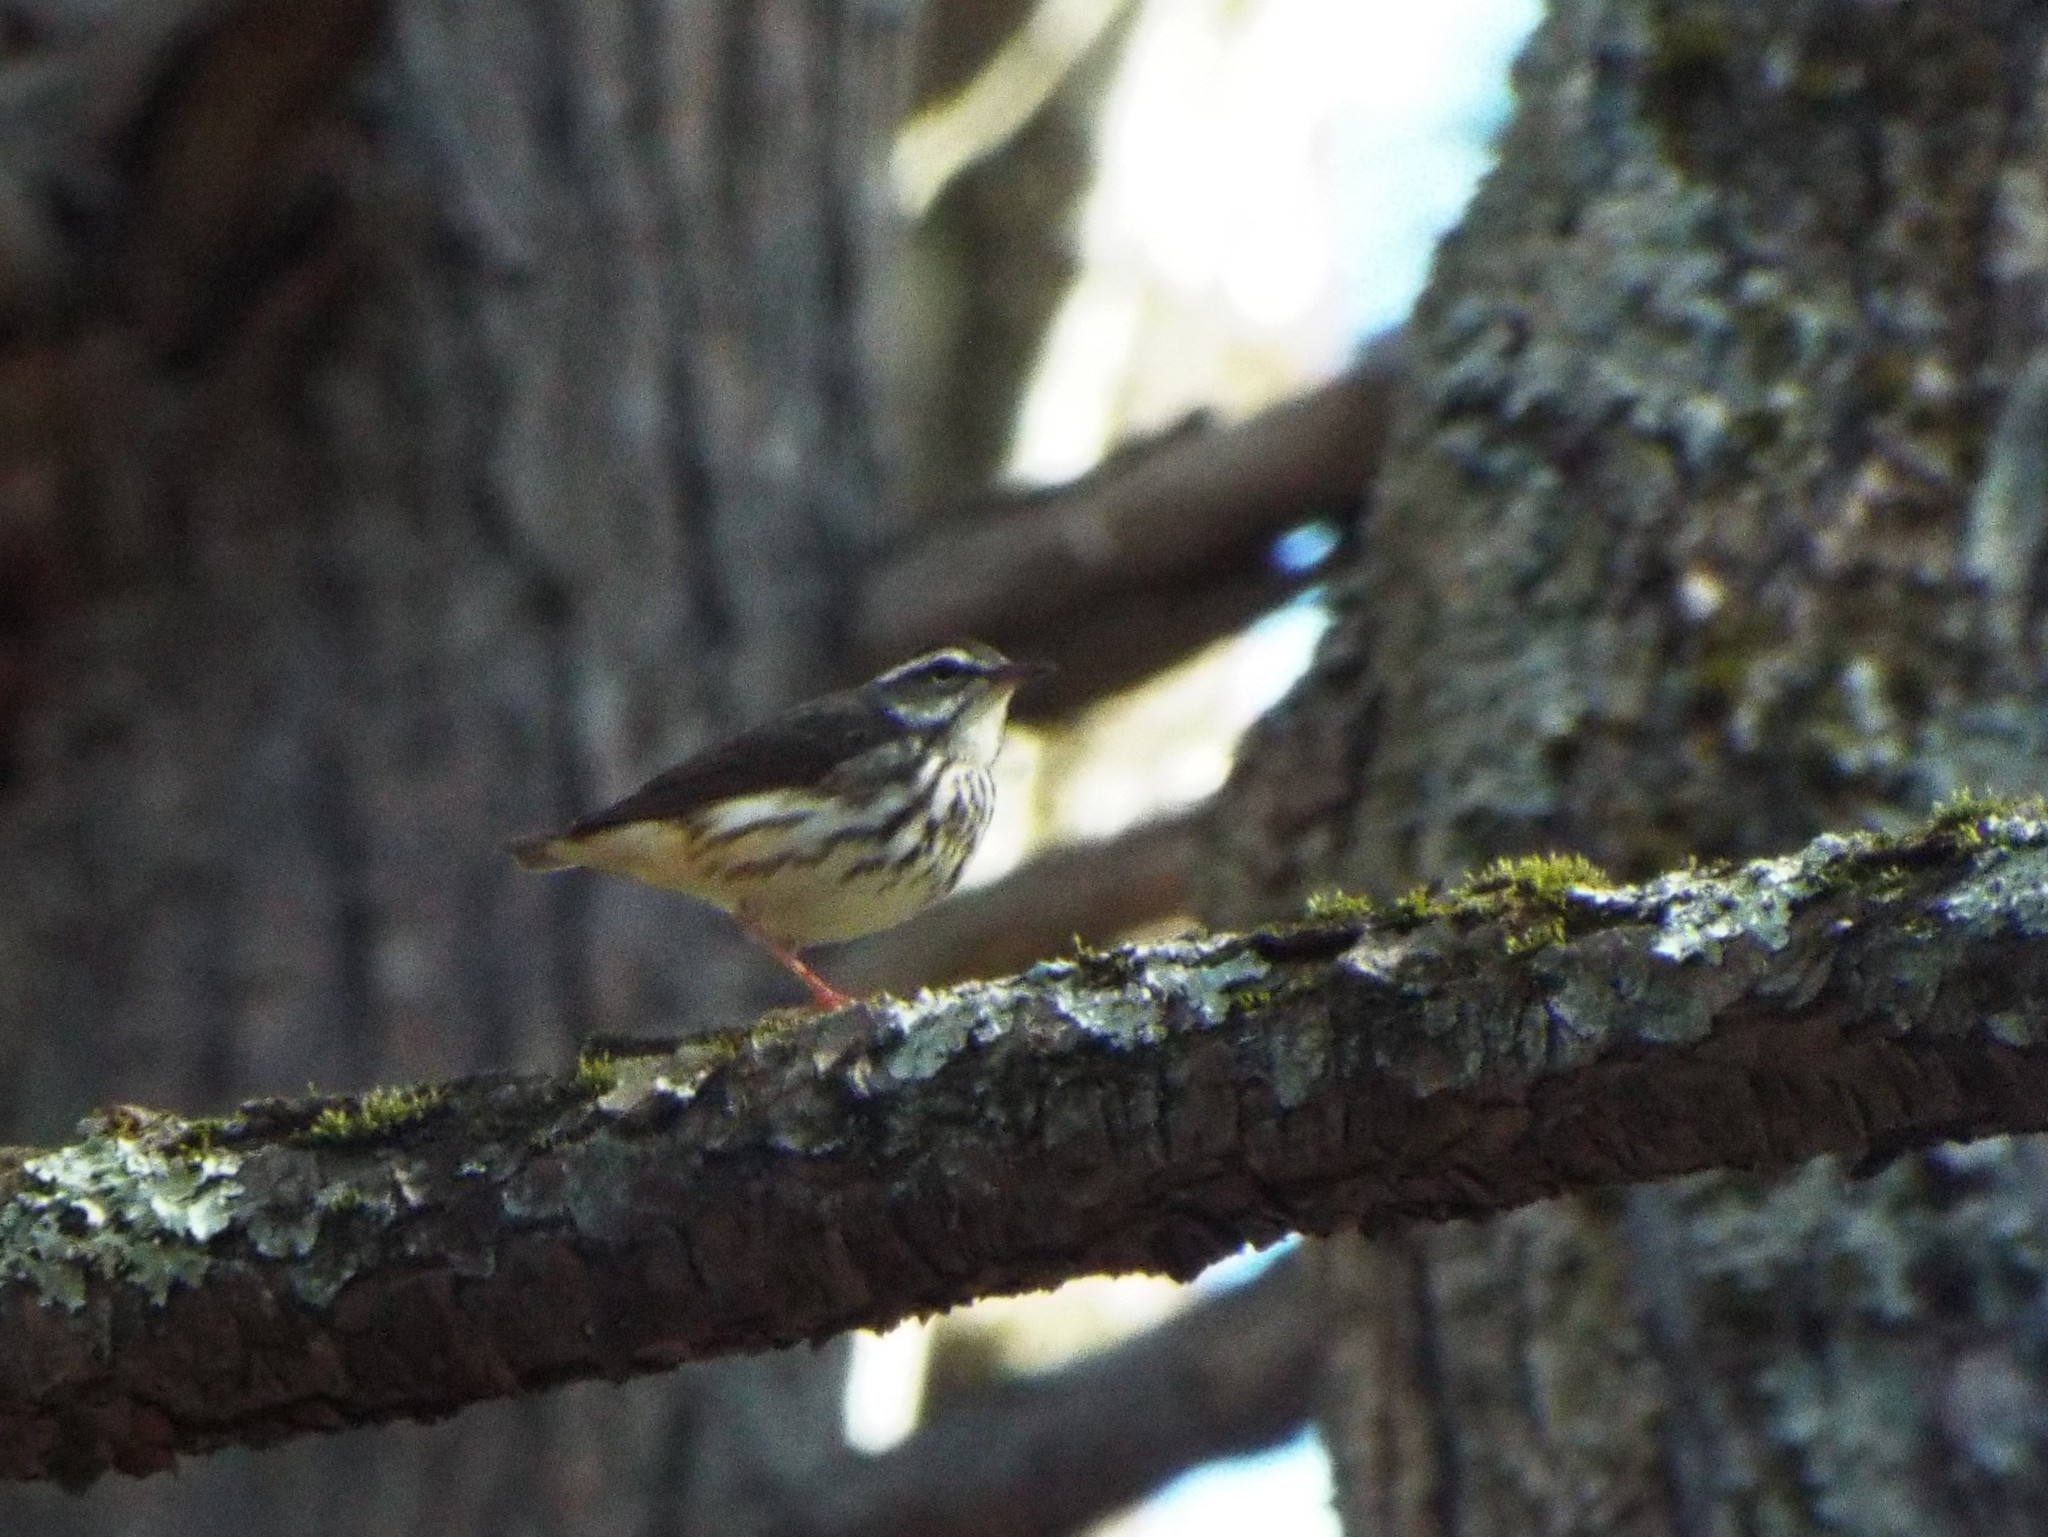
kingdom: Animalia
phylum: Chordata
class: Aves
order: Passeriformes
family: Parulidae
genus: Parkesia
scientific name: Parkesia motacilla
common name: Louisiana waterthrush
